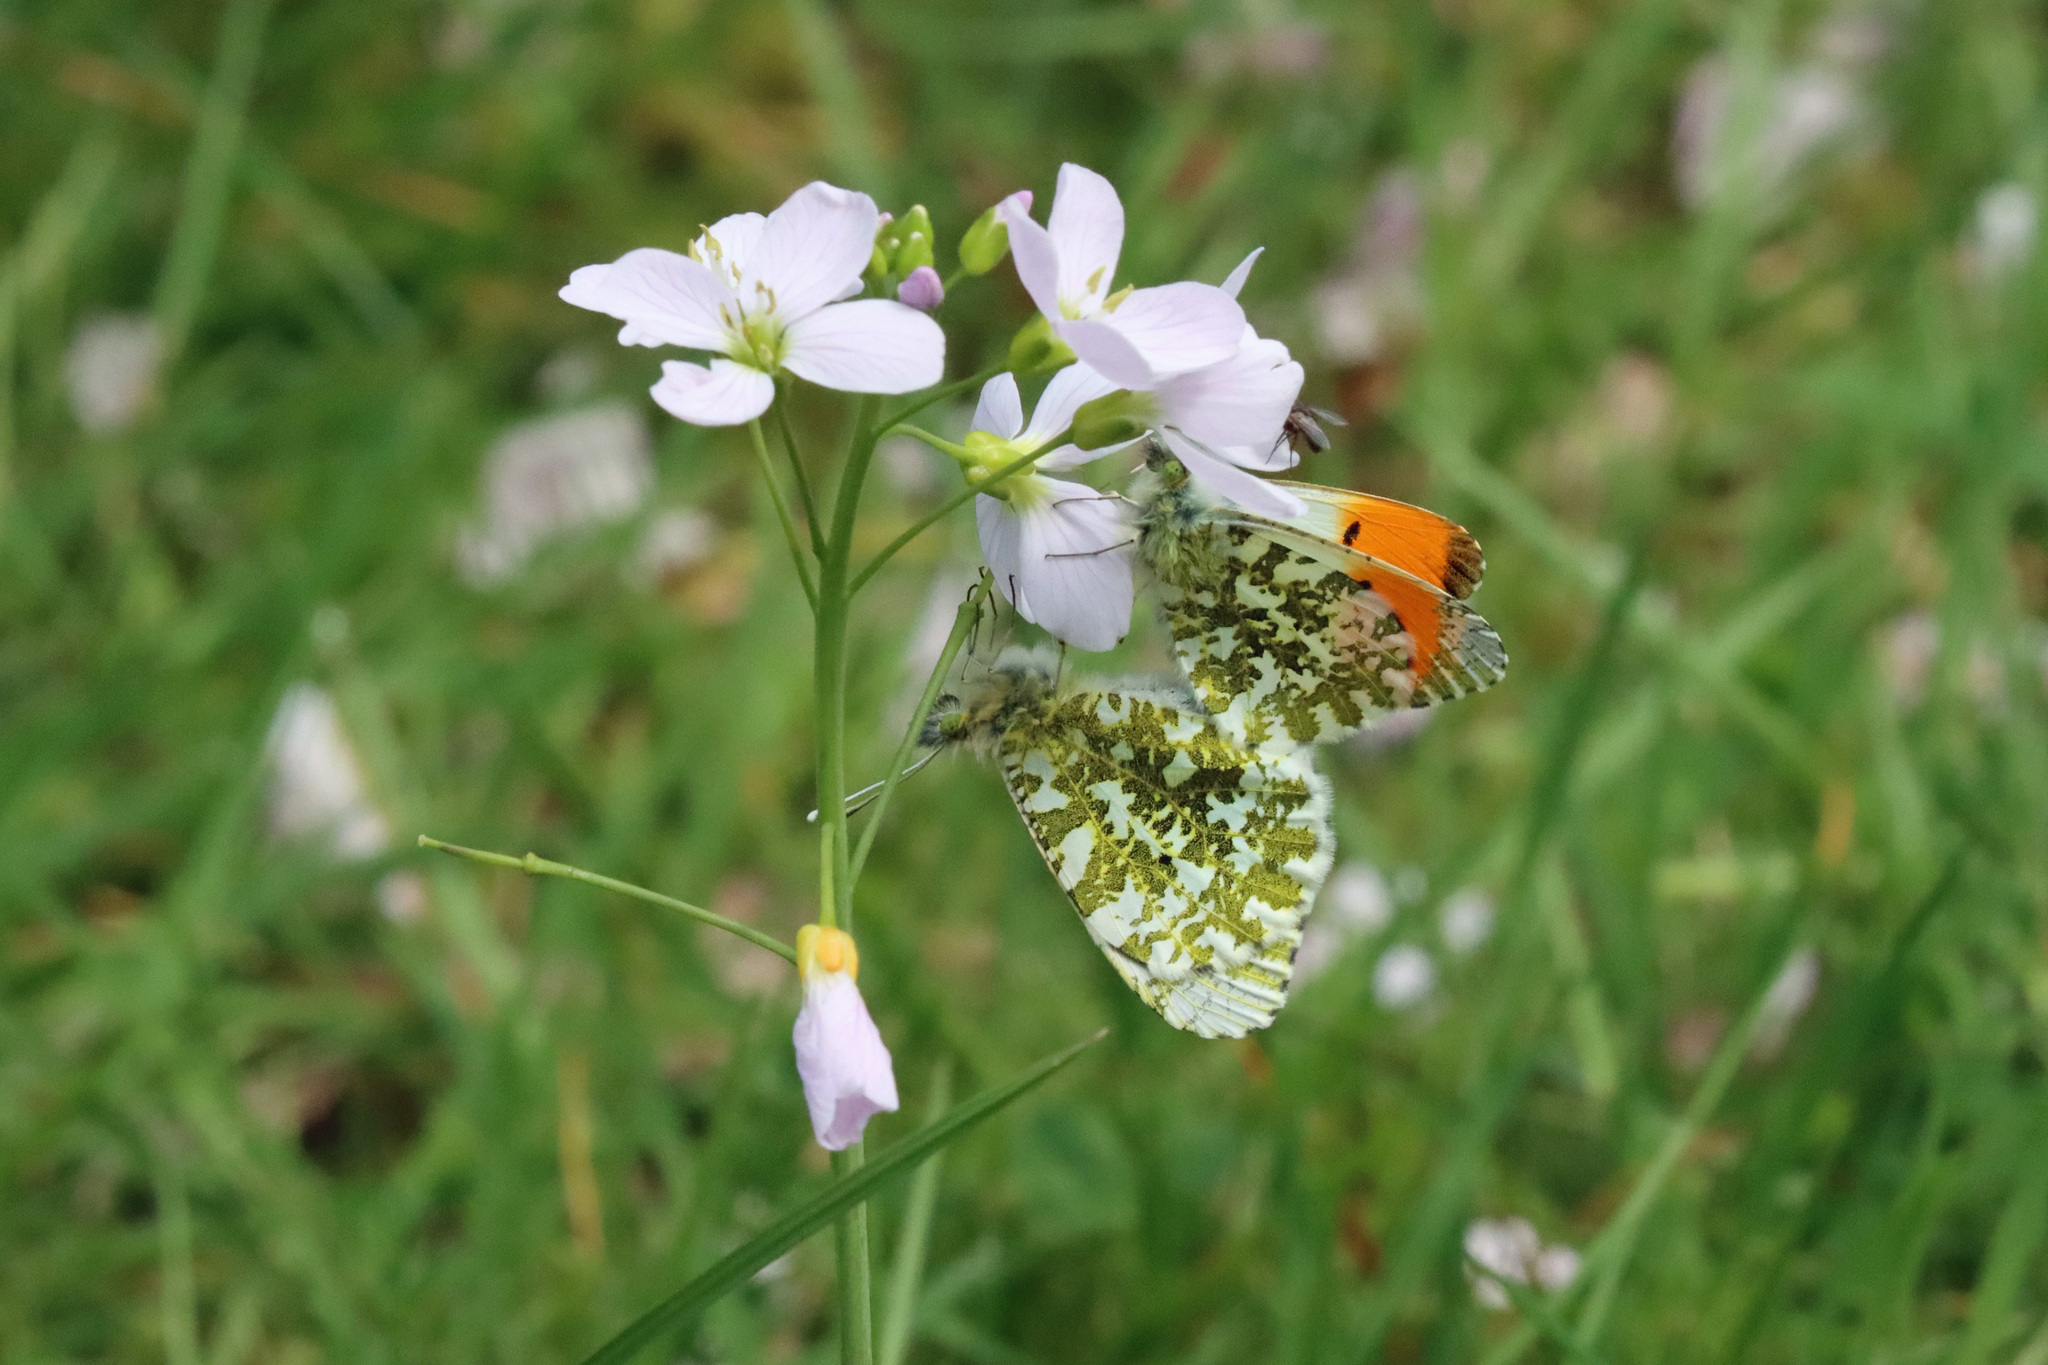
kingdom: Animalia
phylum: Arthropoda
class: Insecta
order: Lepidoptera
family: Pieridae
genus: Anthocharis
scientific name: Anthocharis cardamines
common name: Orange-tip
